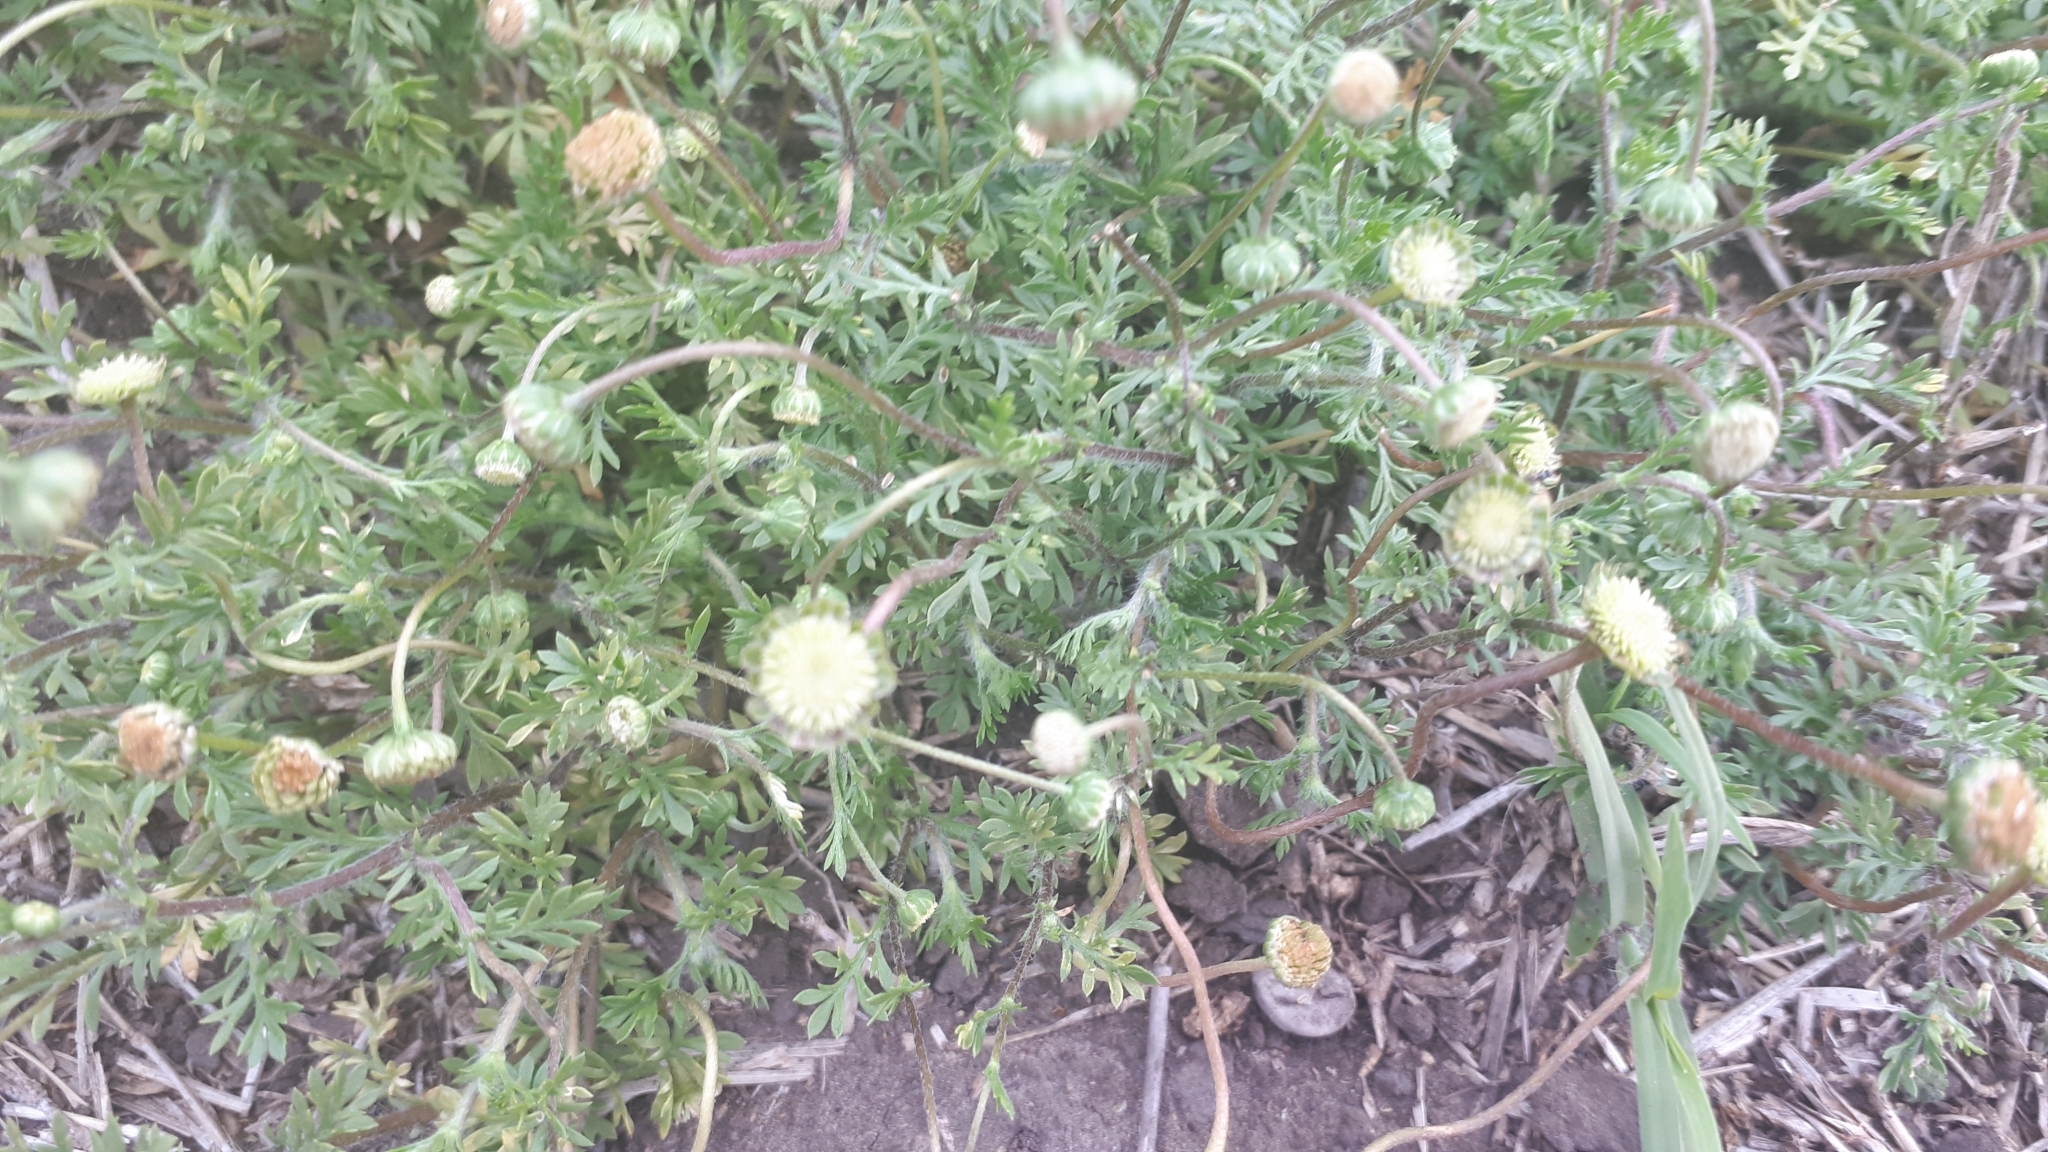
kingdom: Plantae
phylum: Tracheophyta
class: Magnoliopsida
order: Asterales
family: Asteraceae
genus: Cotula
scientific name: Cotula australis
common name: Australian waterbuttons
